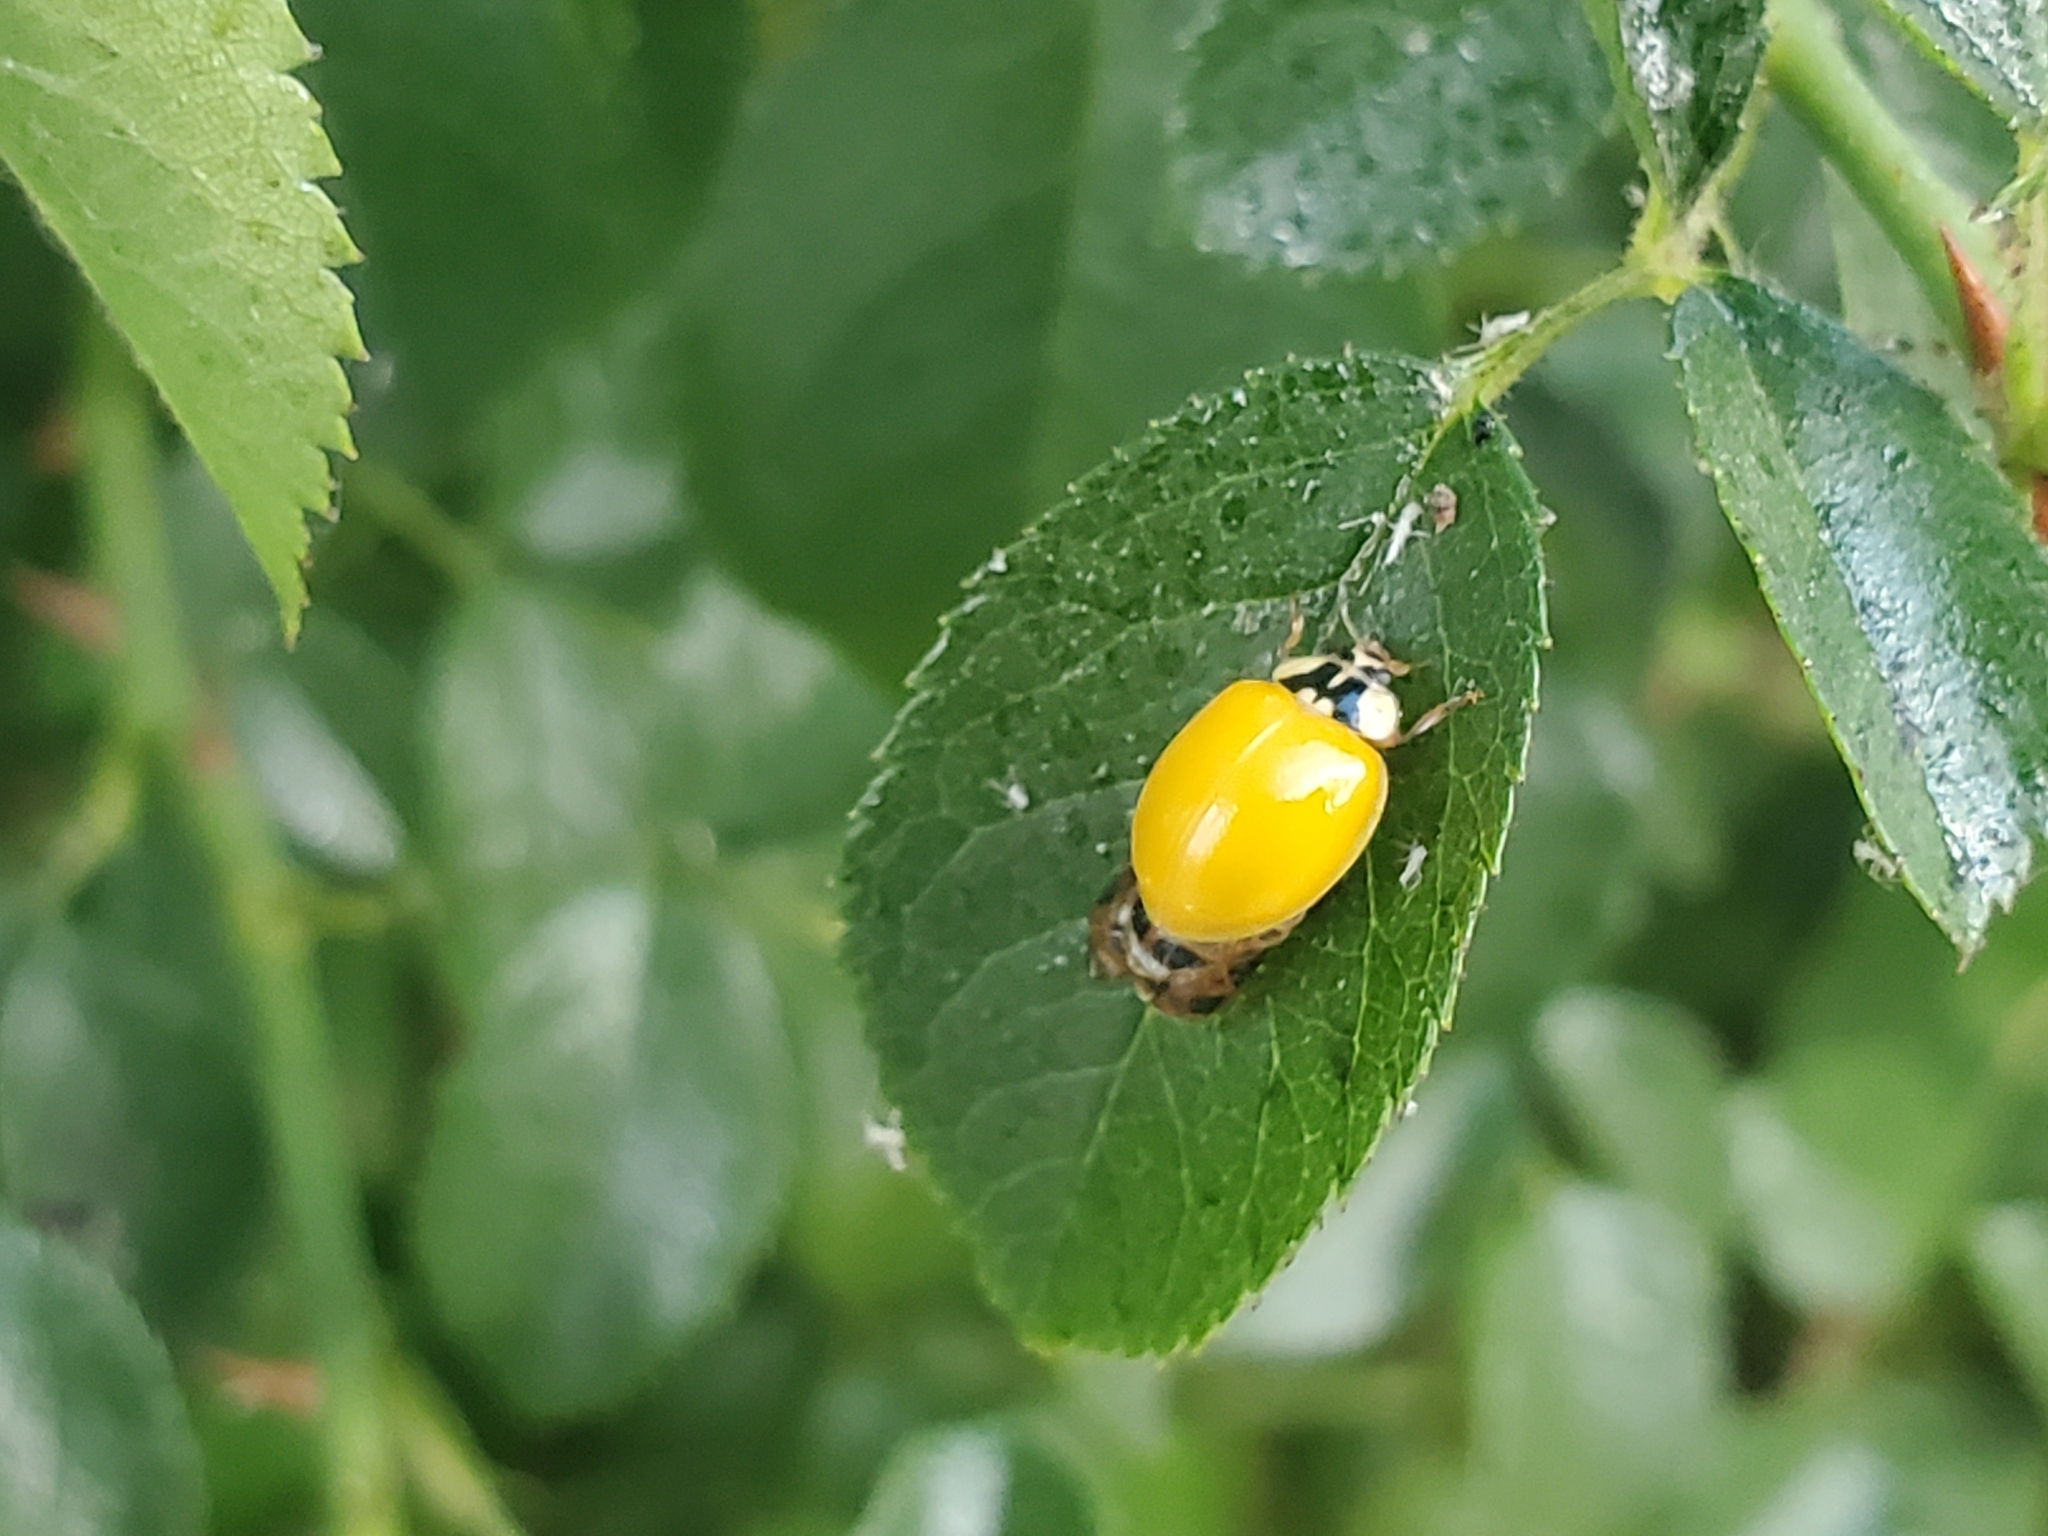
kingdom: Animalia
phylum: Arthropoda
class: Insecta
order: Coleoptera
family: Coccinellidae
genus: Harmonia
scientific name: Harmonia axyridis
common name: Harlequin ladybird
